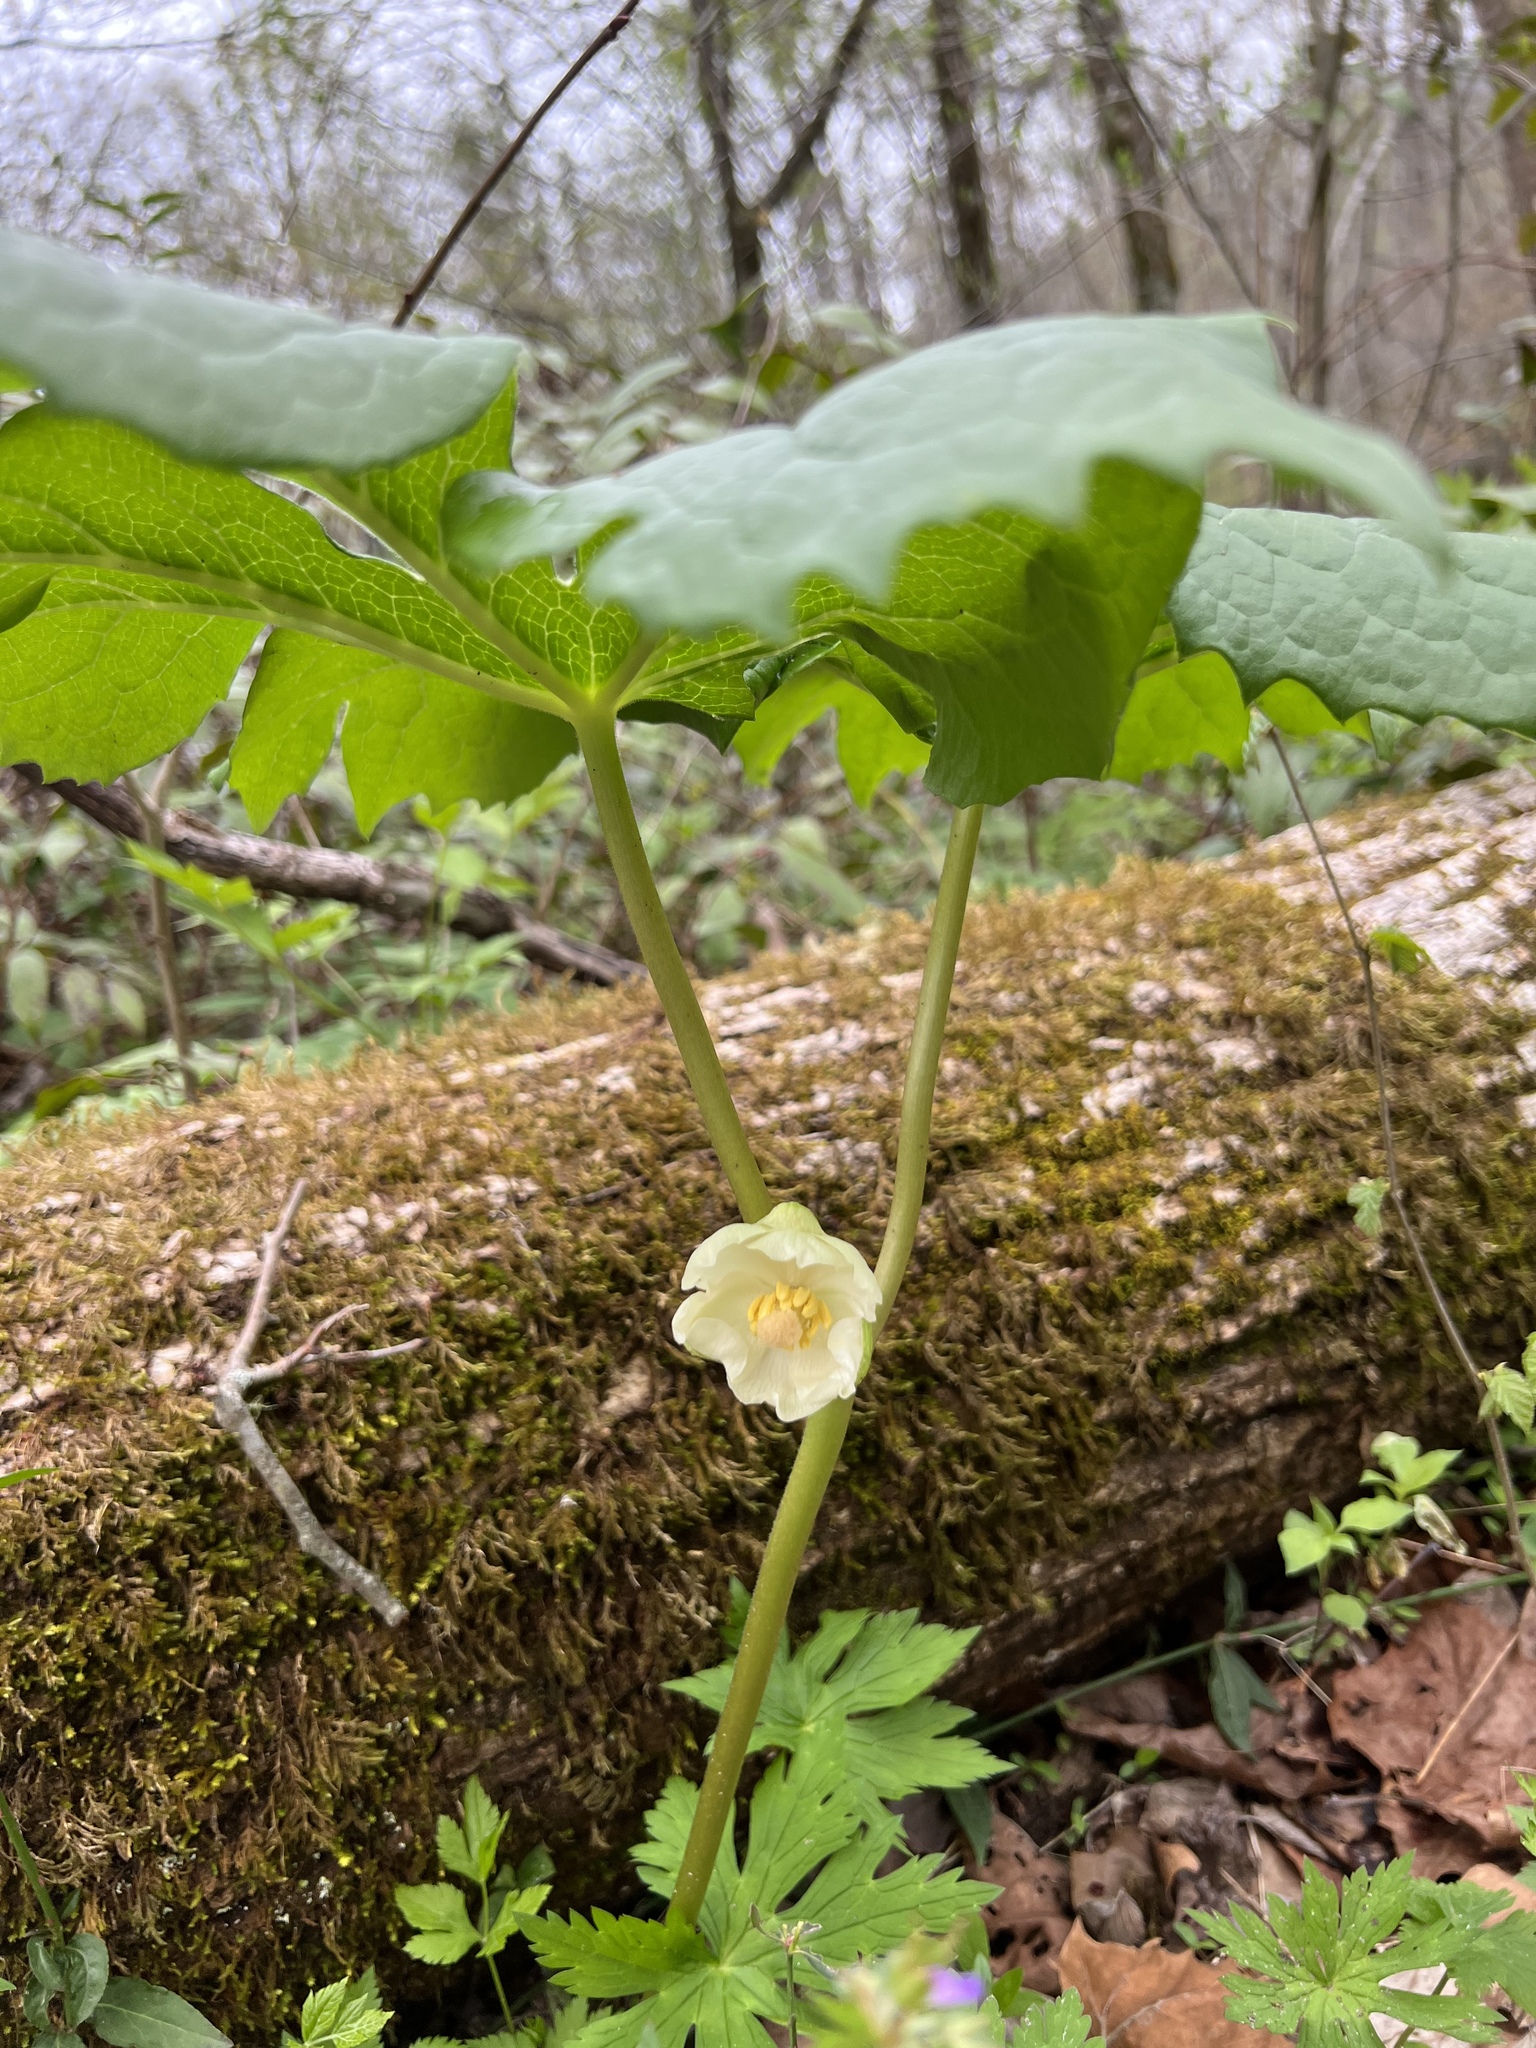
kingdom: Plantae
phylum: Tracheophyta
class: Magnoliopsida
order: Ranunculales
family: Berberidaceae
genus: Podophyllum
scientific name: Podophyllum peltatum
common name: Wild mandrake
